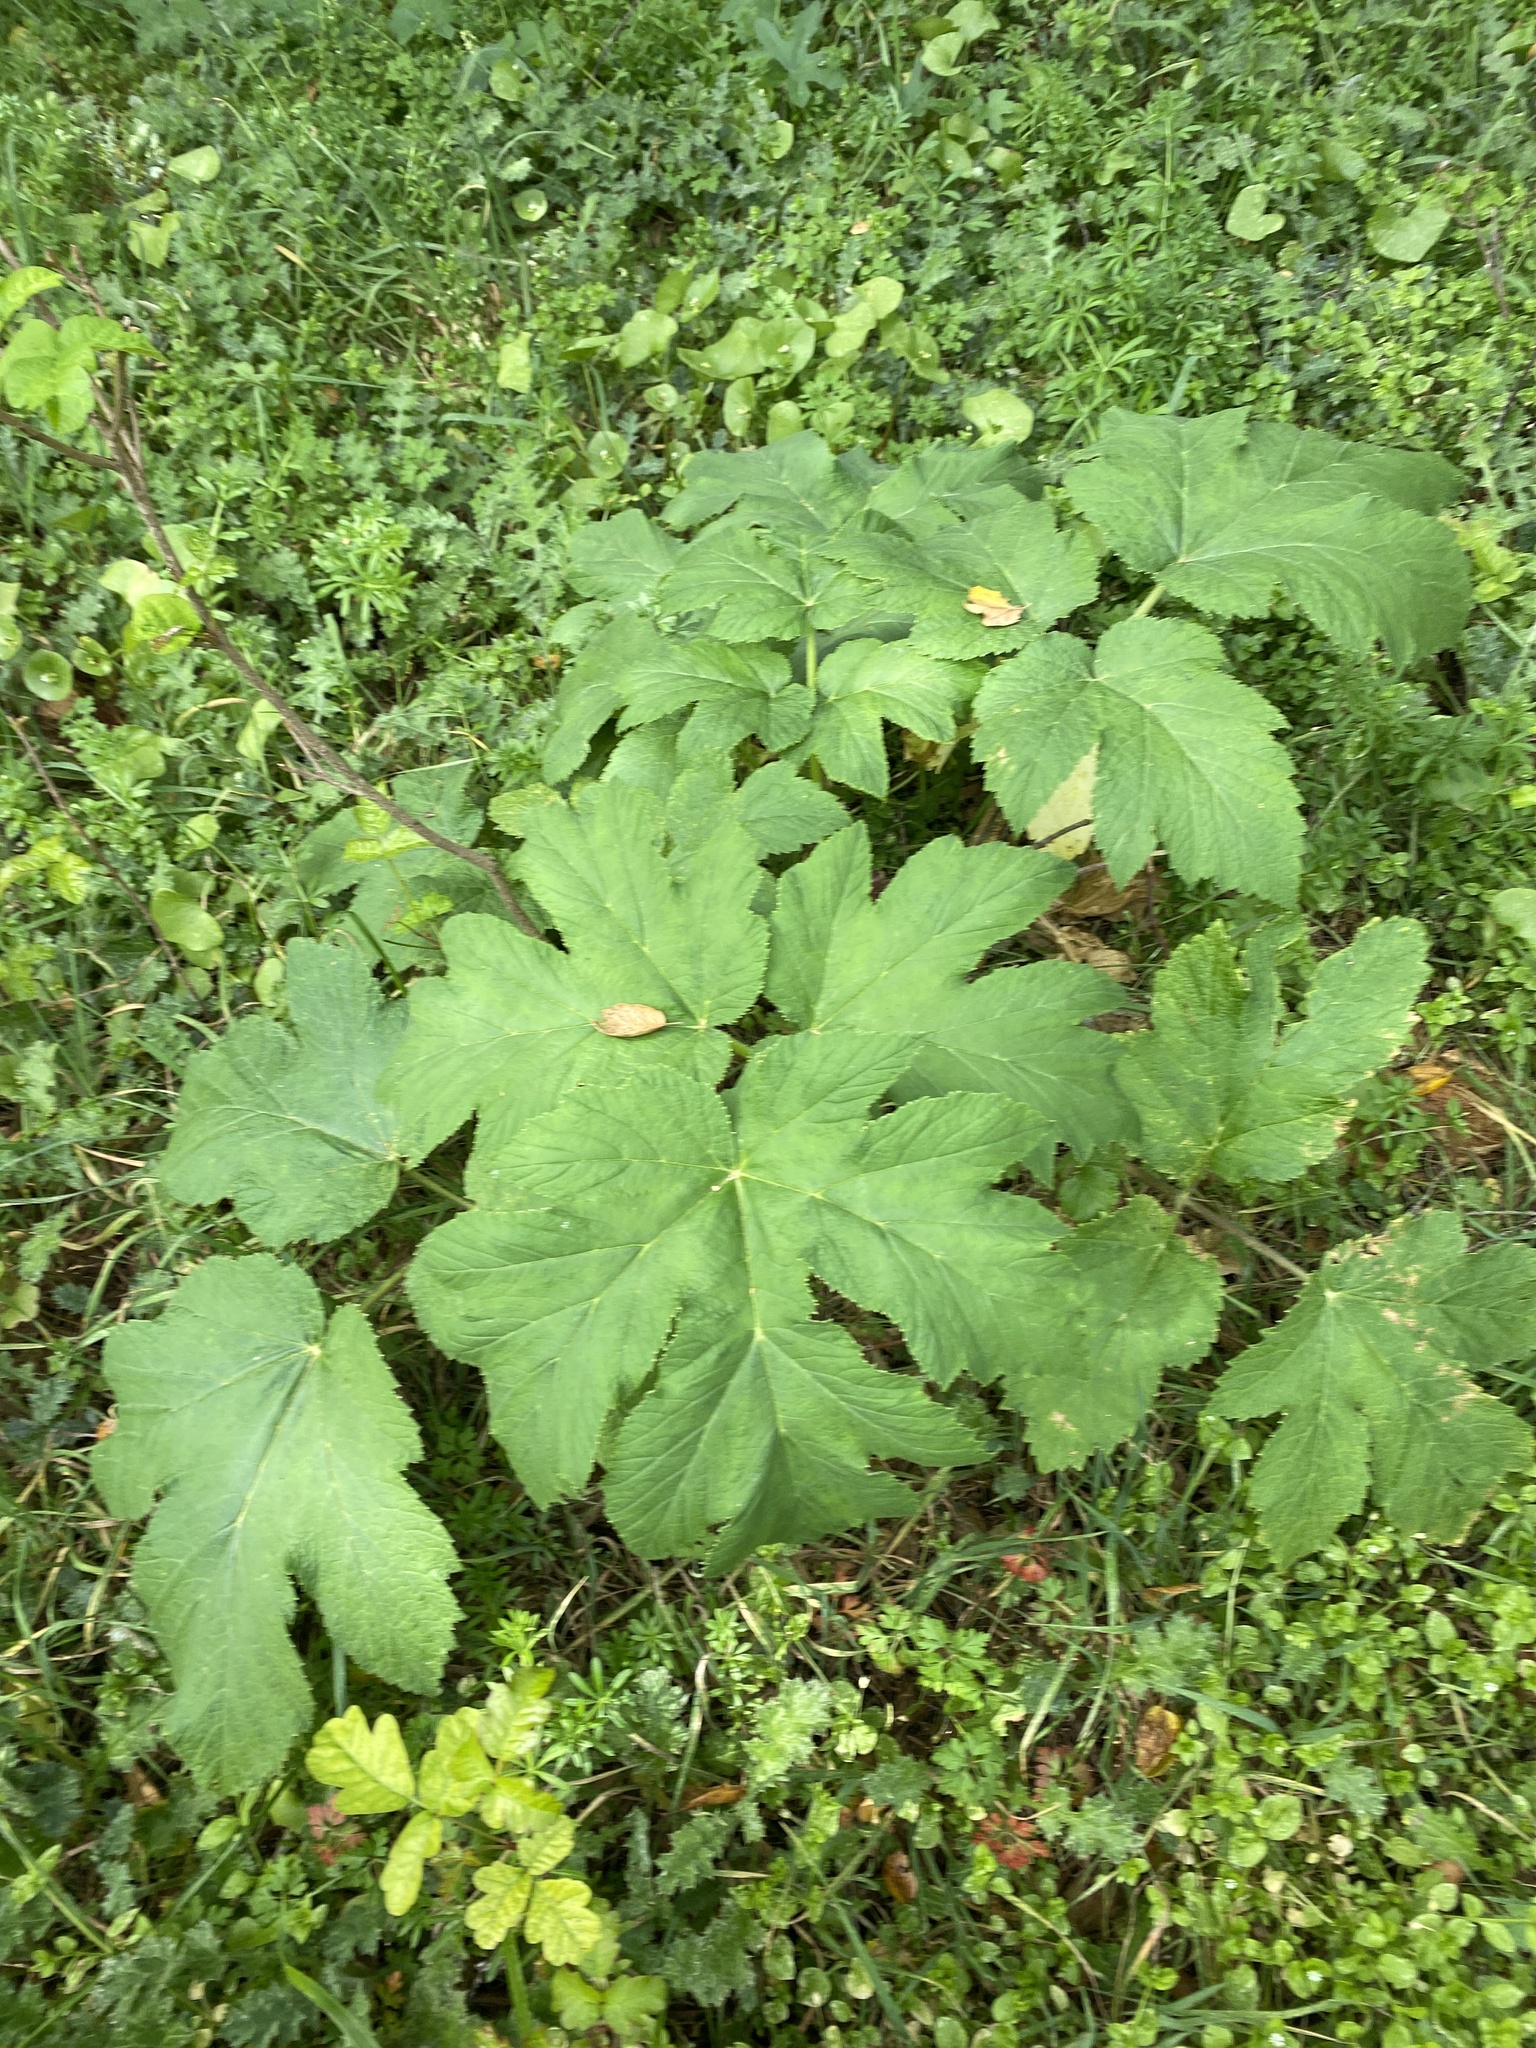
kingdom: Plantae
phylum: Tracheophyta
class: Magnoliopsida
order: Apiales
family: Apiaceae
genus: Heracleum
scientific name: Heracleum maximum
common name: American cow parsnip
